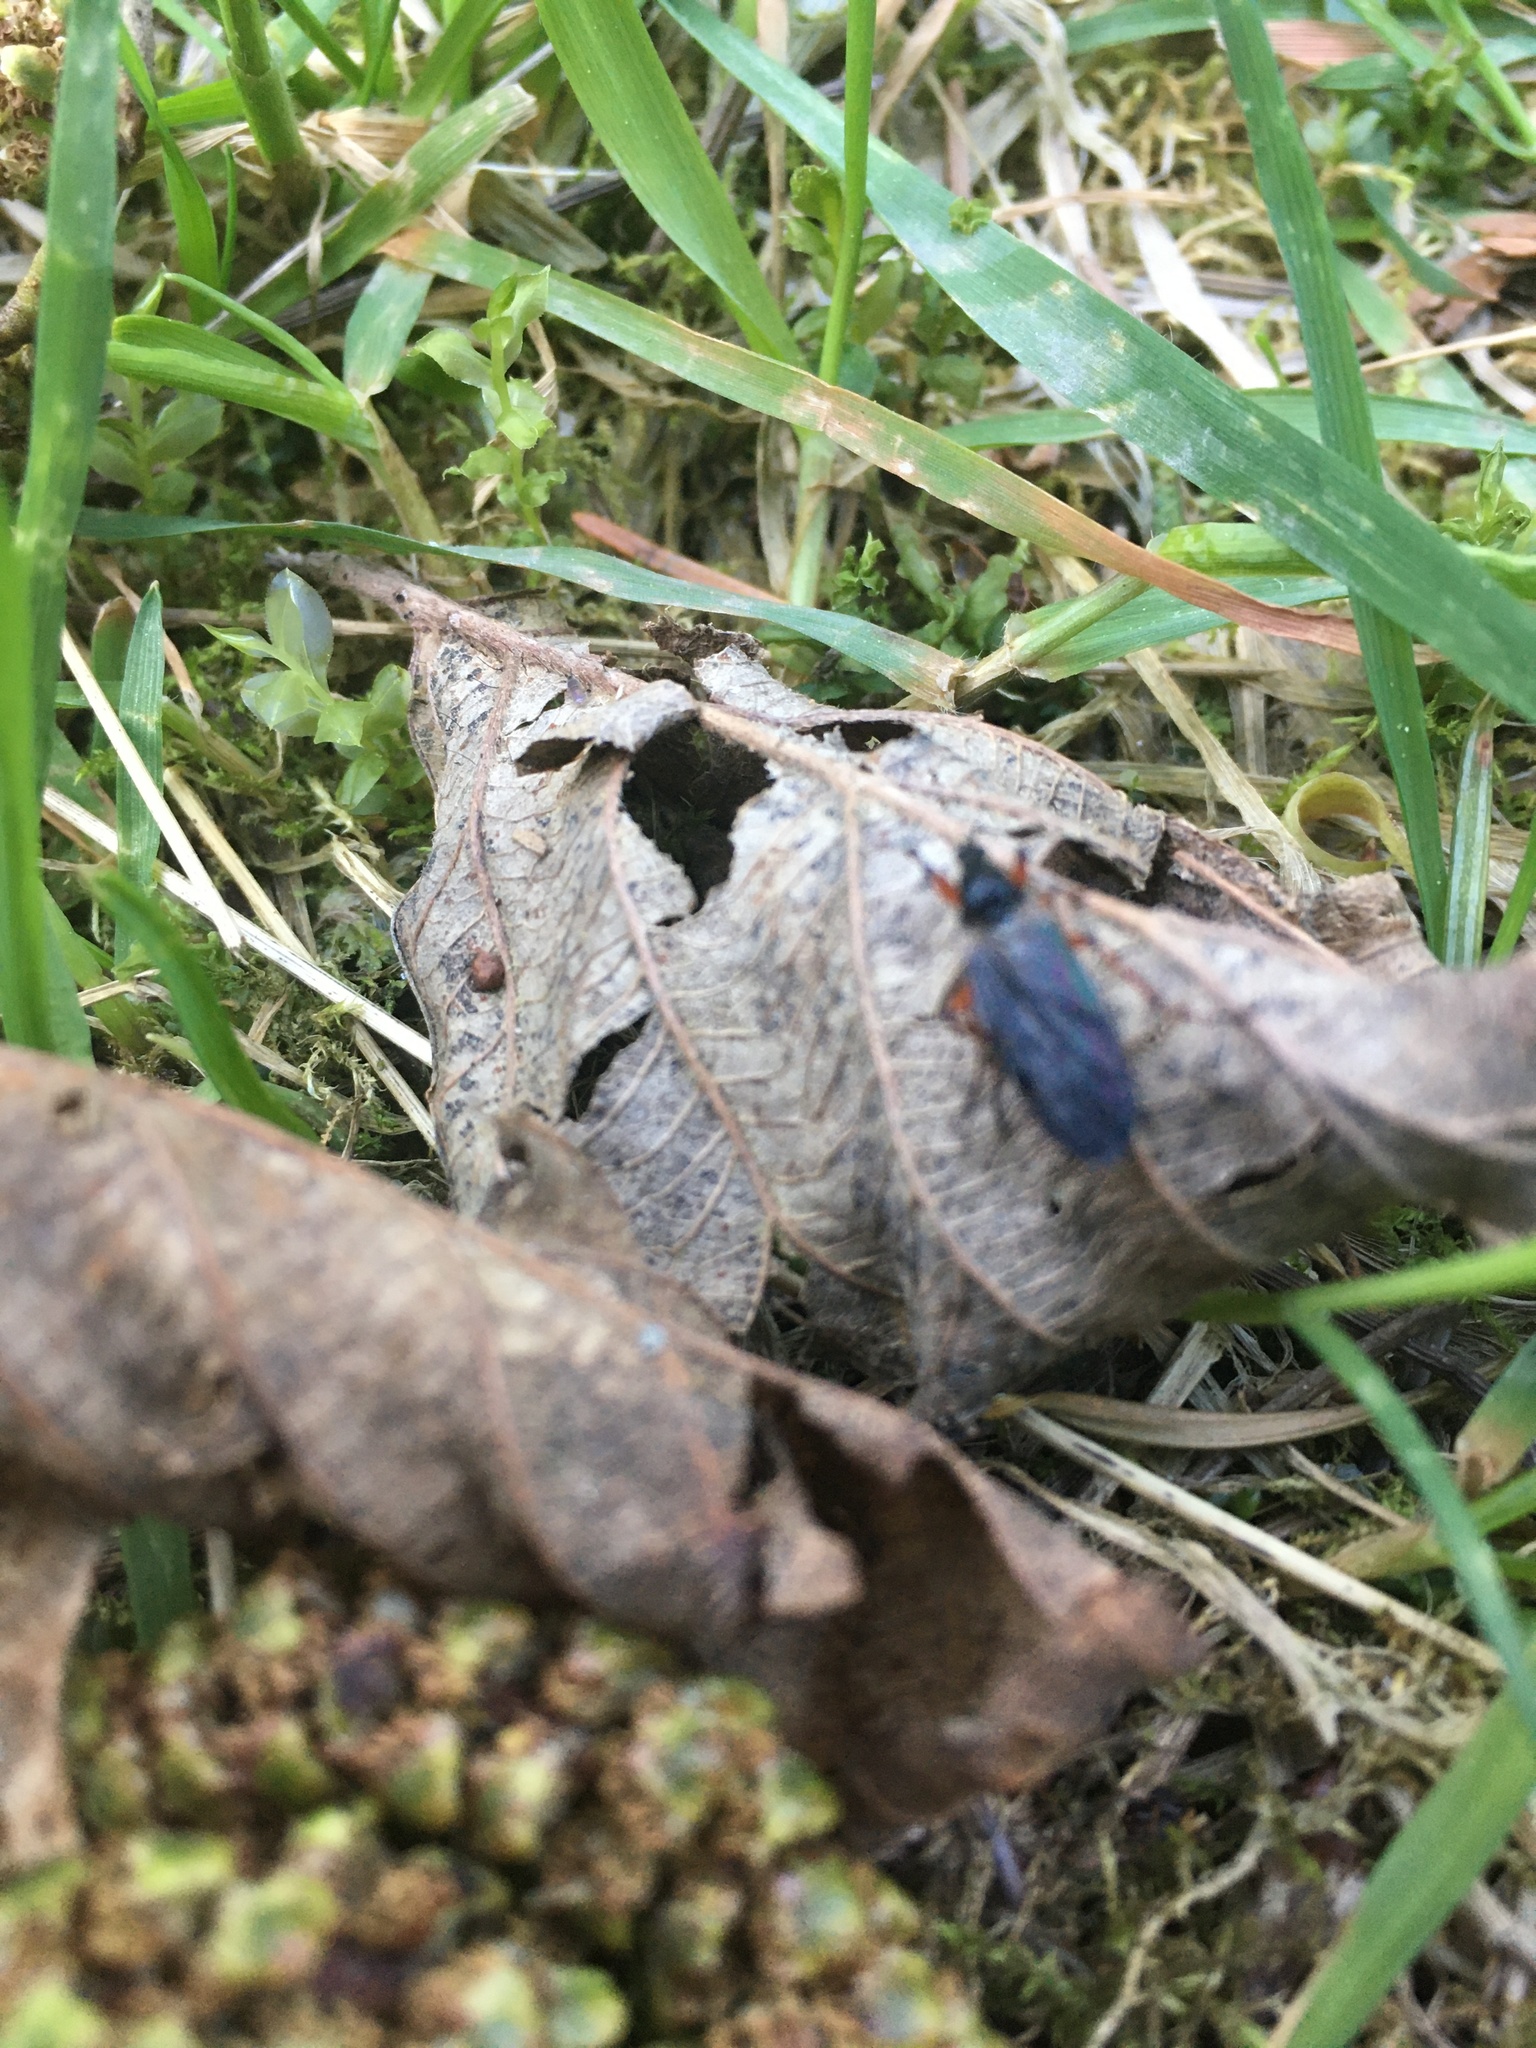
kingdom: Animalia
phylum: Arthropoda
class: Insecta
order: Diptera
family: Bibionidae
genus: Bibio
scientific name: Bibio
